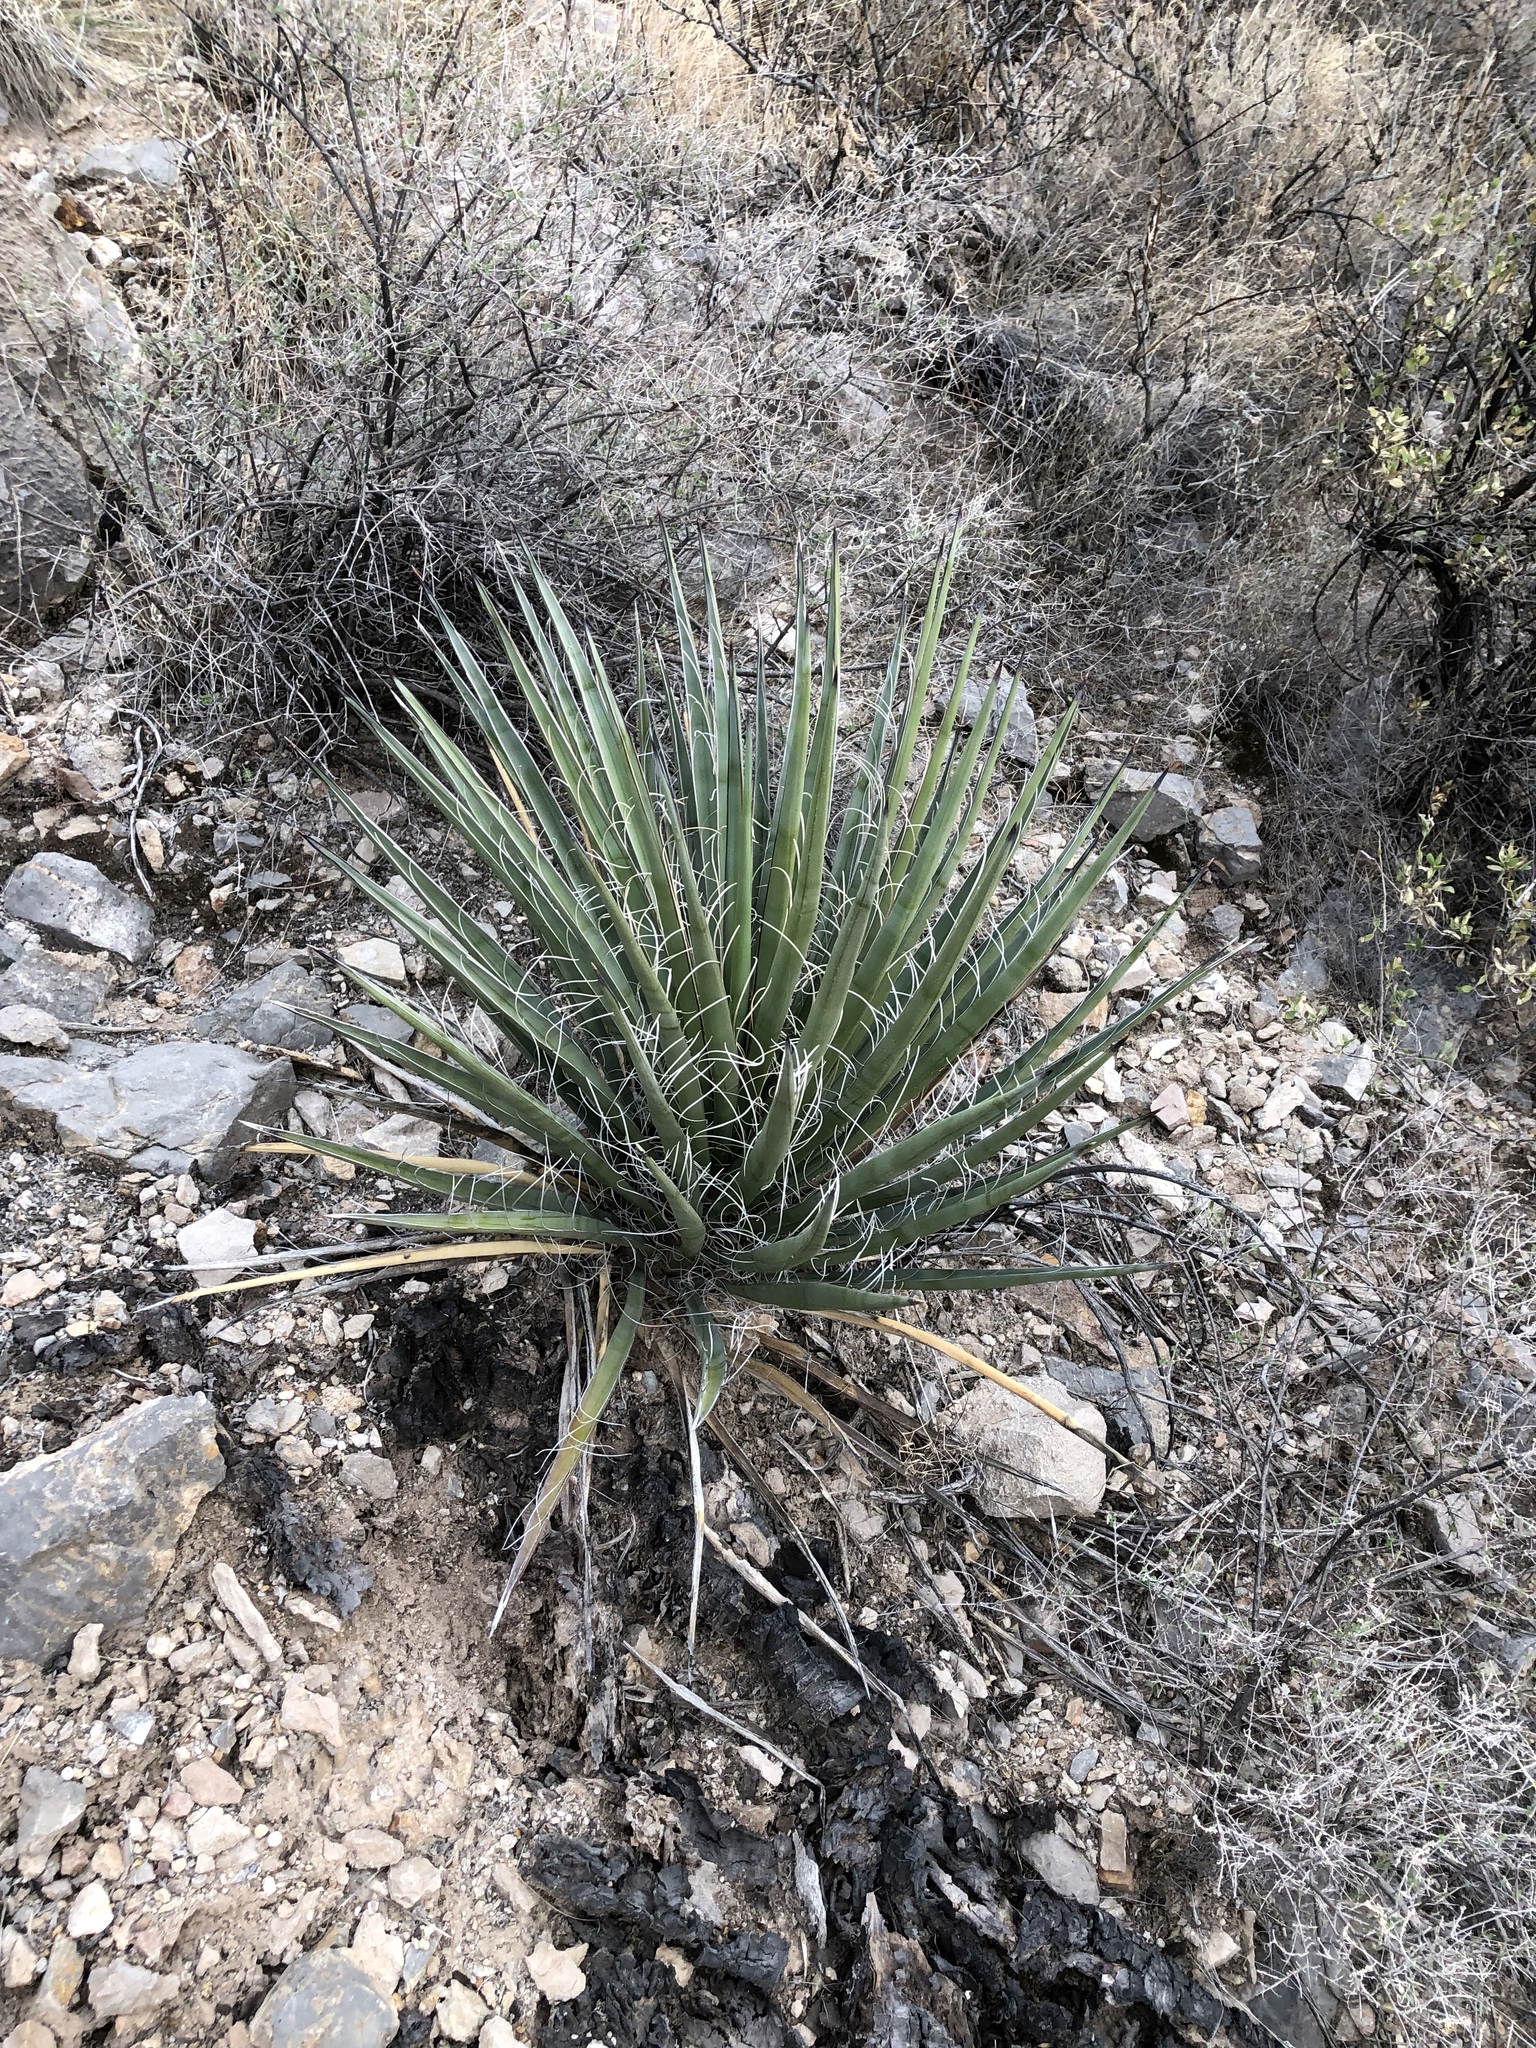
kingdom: Plantae
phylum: Tracheophyta
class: Liliopsida
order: Asparagales
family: Asparagaceae
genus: Yucca
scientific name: Yucca baccata
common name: Banana yucca
